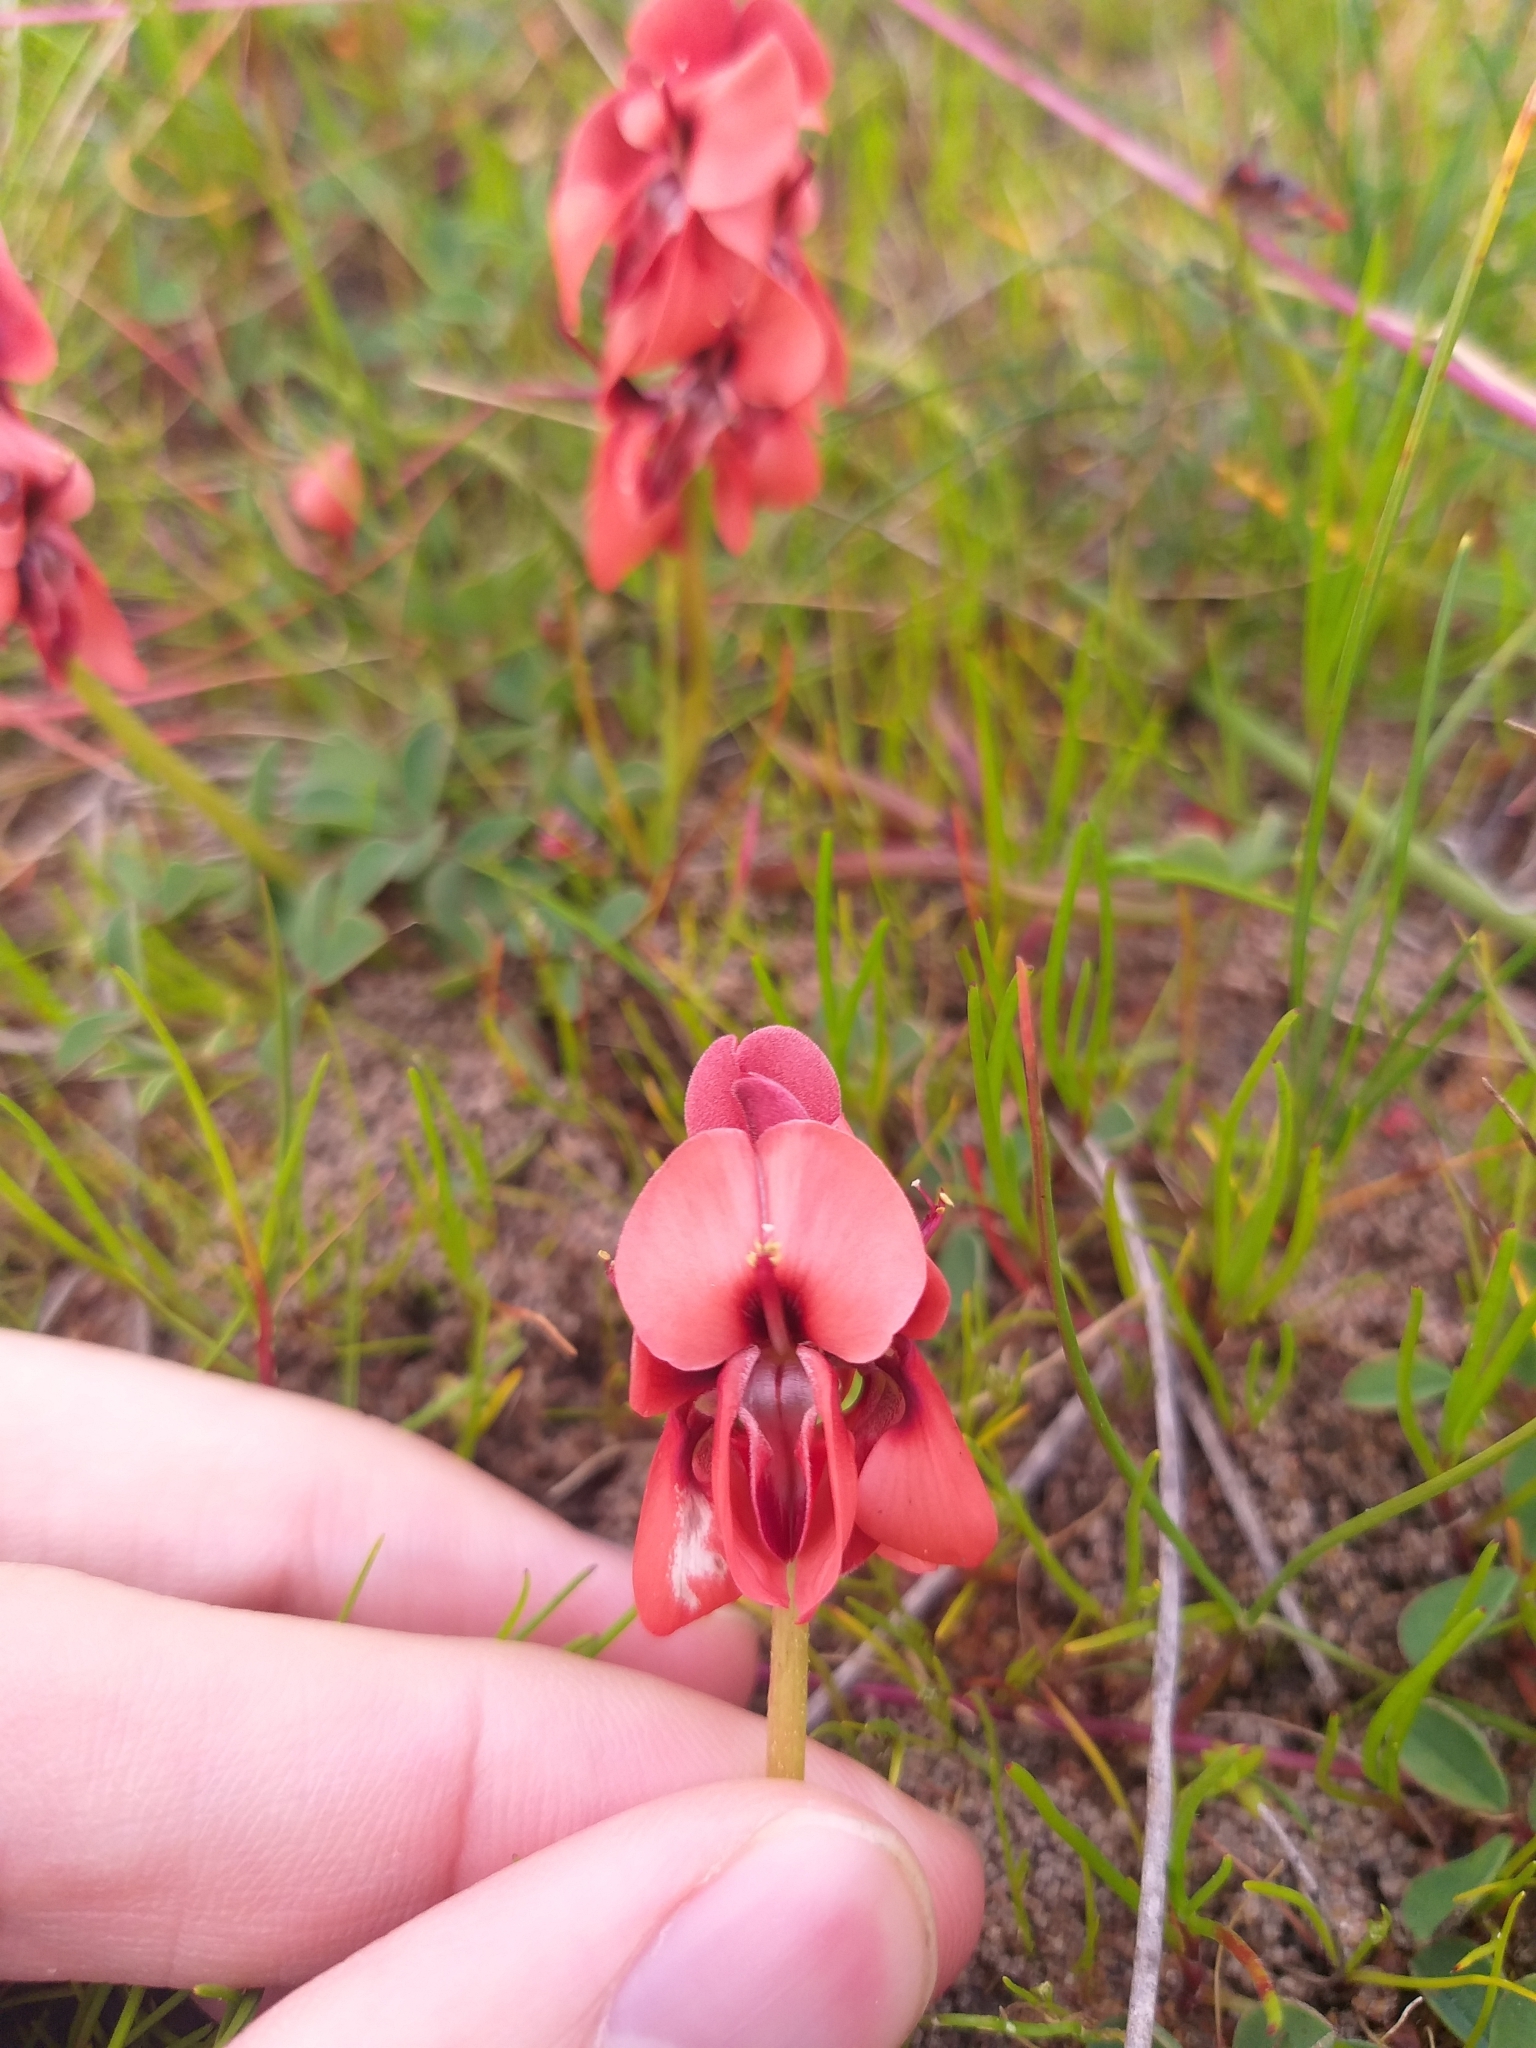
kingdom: Plantae
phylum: Tracheophyta
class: Magnoliopsida
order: Fabales
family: Fabaceae
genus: Indigofera
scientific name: Indigofera procumbens
